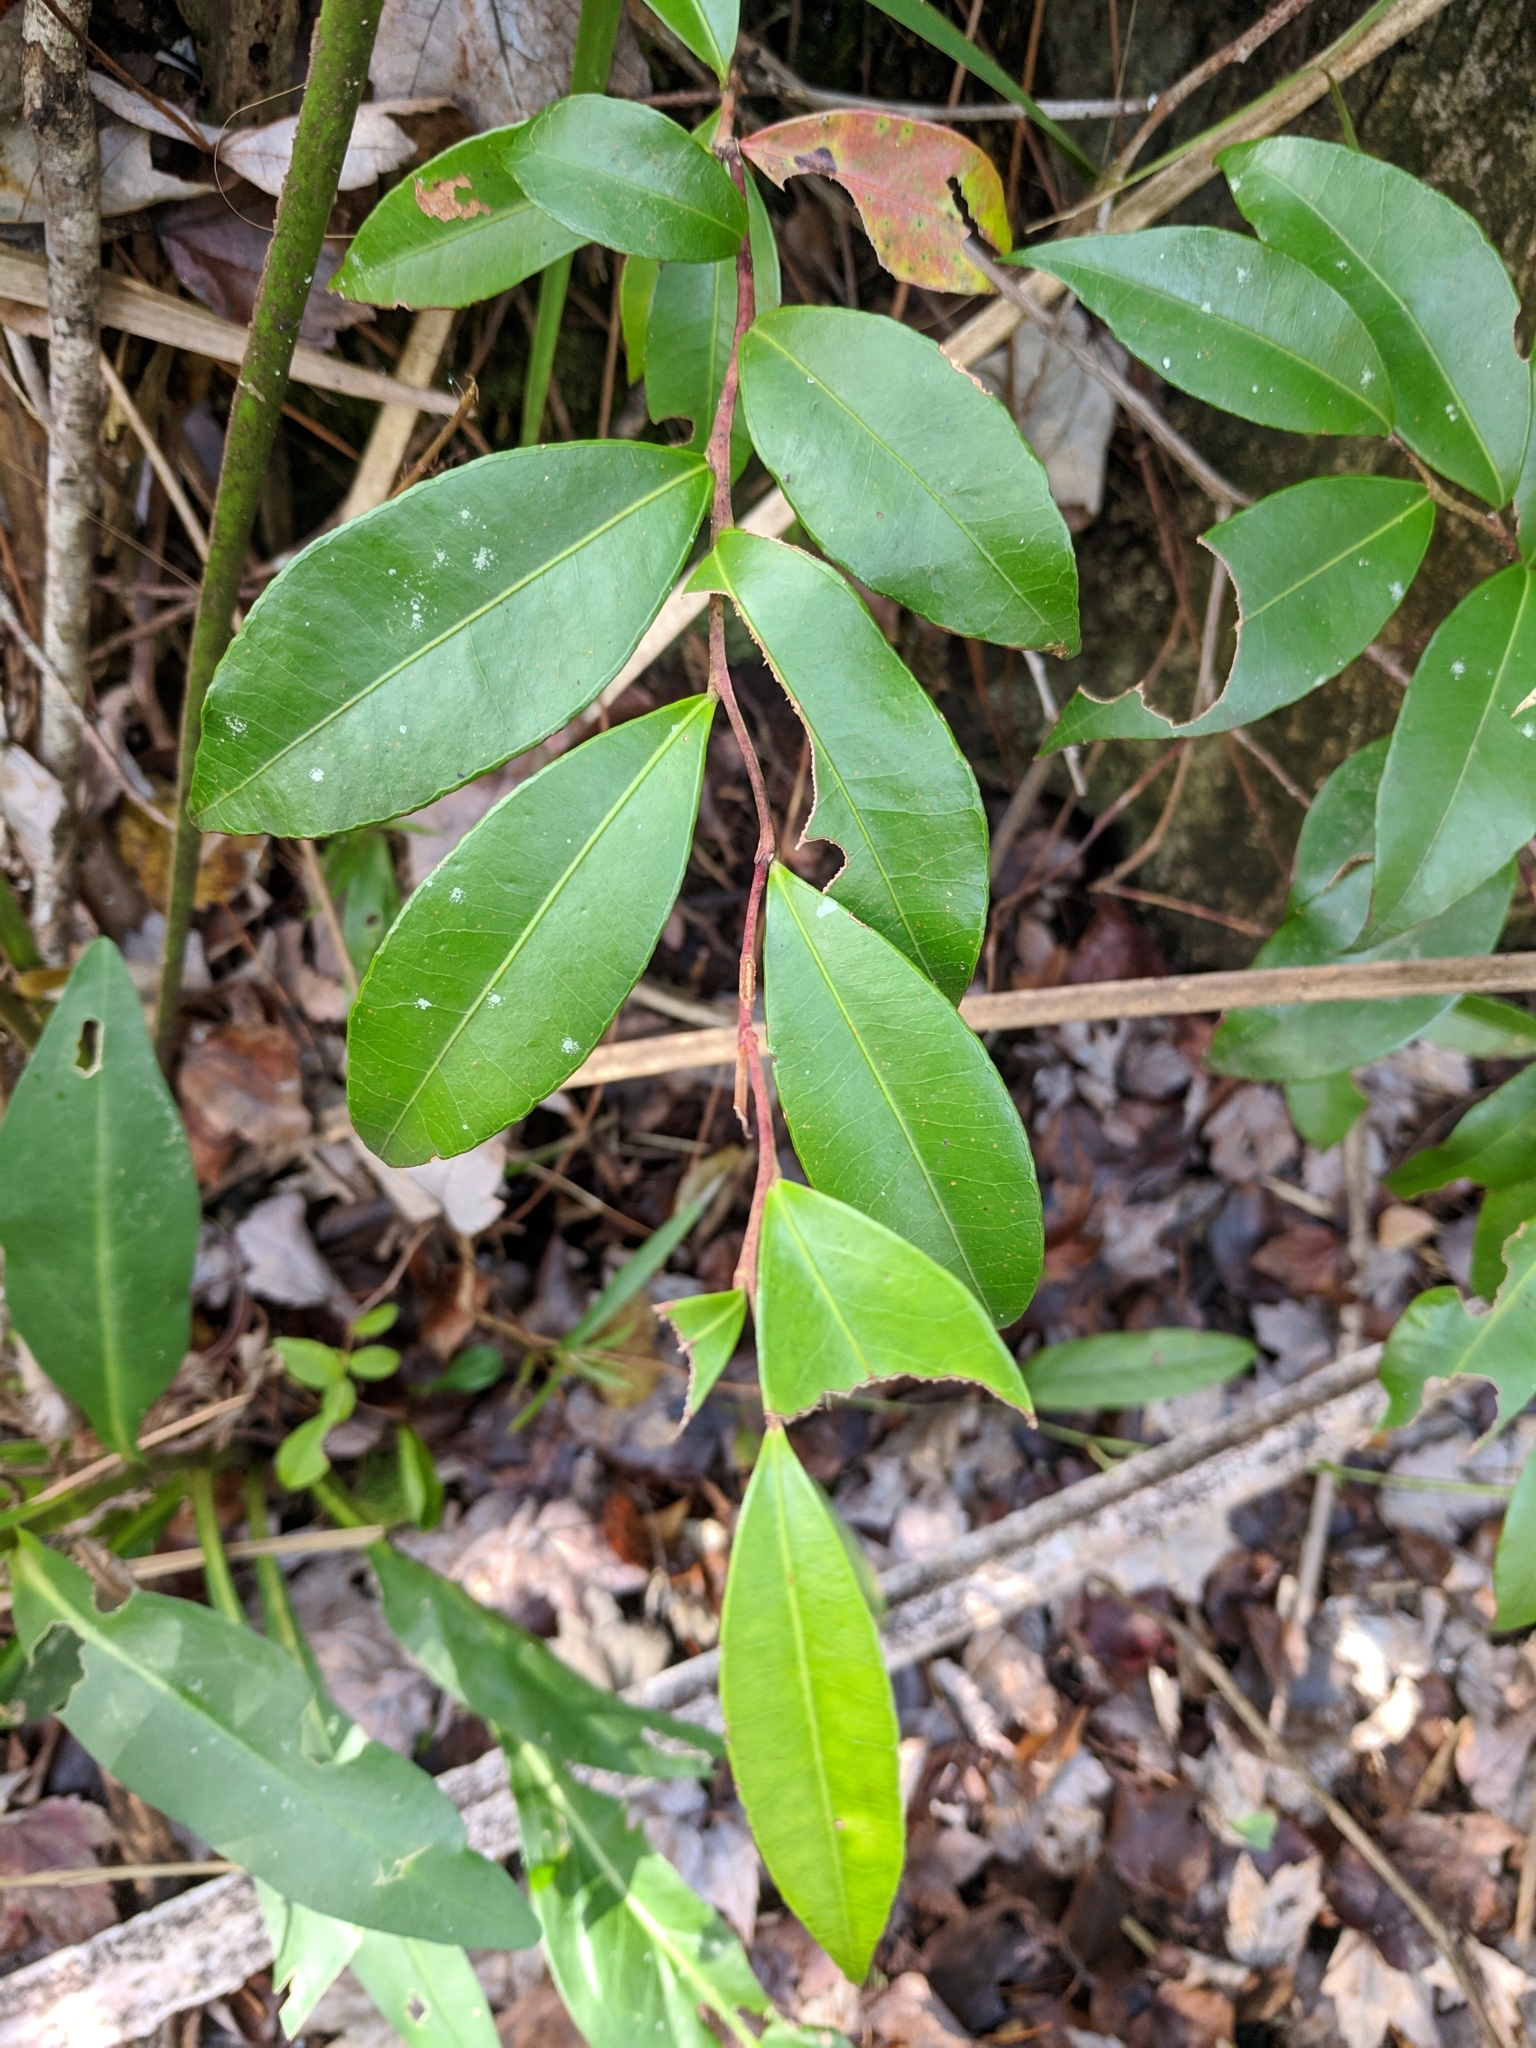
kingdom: Plantae
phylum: Tracheophyta
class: Magnoliopsida
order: Ericales
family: Ericaceae
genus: Lyonia
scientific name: Lyonia lucida
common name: Fetterbush
